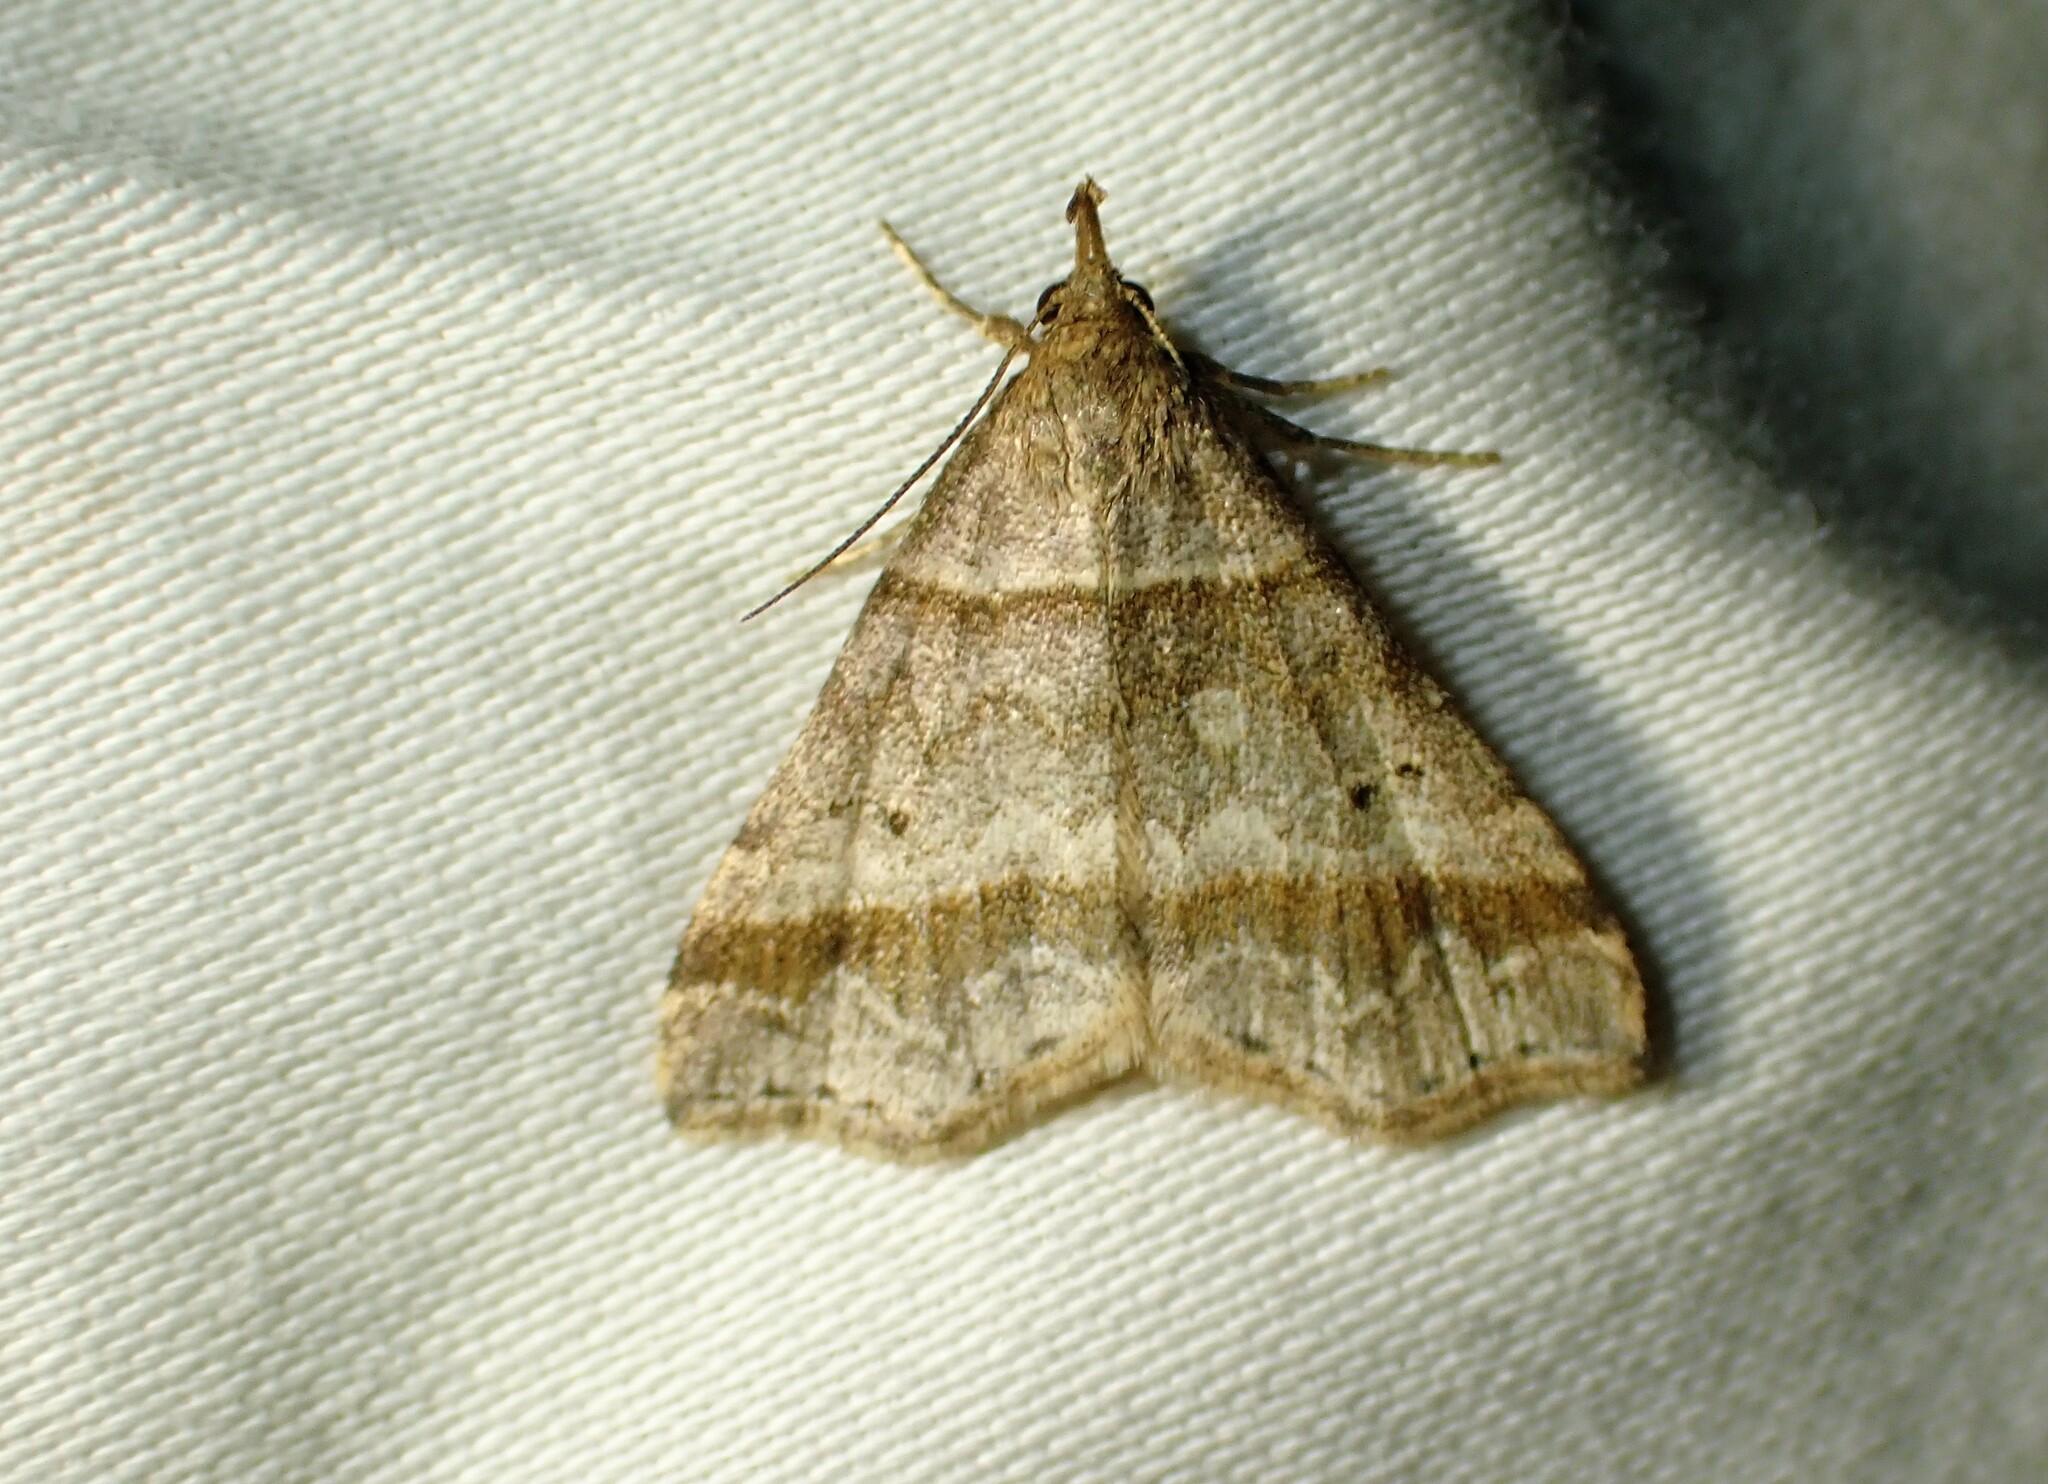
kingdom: Animalia
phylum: Arthropoda
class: Insecta
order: Lepidoptera
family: Erebidae
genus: Phaeolita
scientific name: Phaeolita pyramusalis
